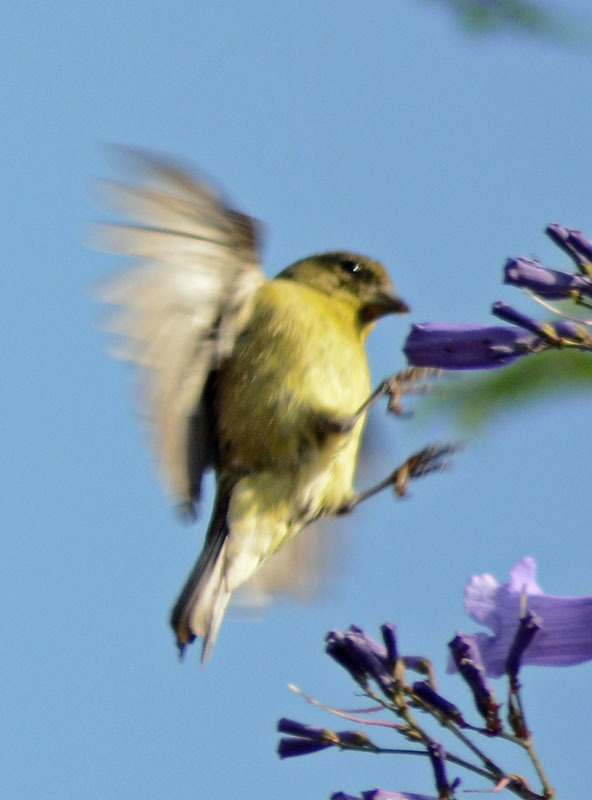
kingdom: Animalia
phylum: Chordata
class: Aves
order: Passeriformes
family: Fringillidae
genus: Spinus
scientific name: Spinus psaltria
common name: Lesser goldfinch
